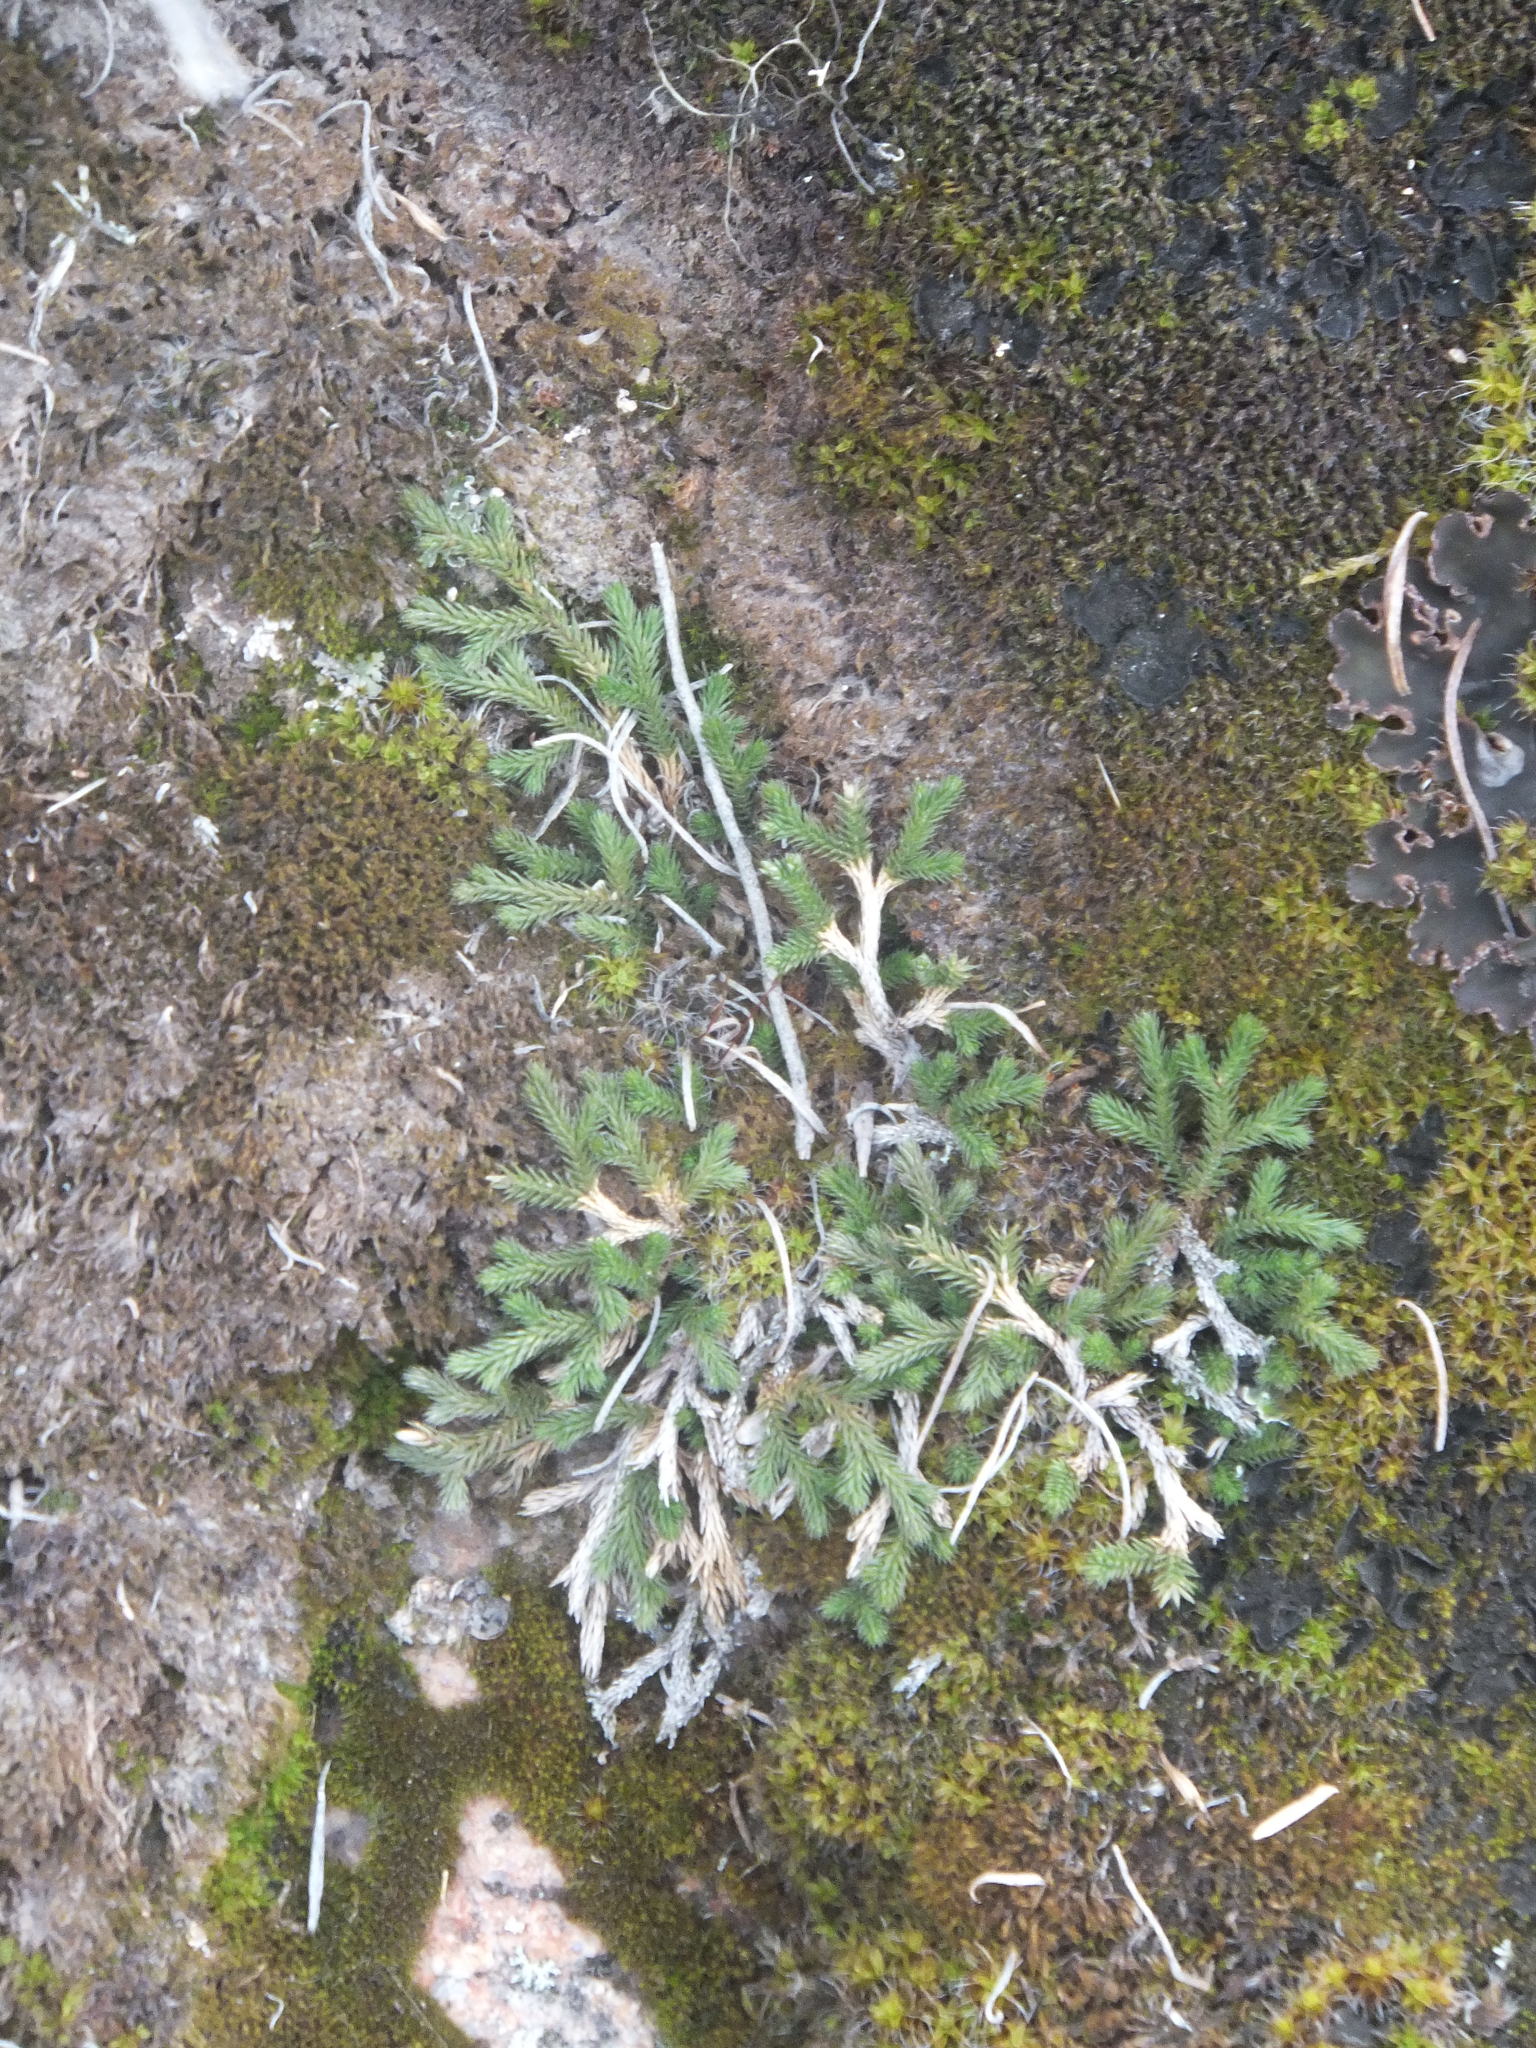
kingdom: Plantae
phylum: Tracheophyta
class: Lycopodiopsida
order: Selaginellales
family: Selaginellaceae
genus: Selaginella
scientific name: Selaginella wallacei
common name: Wallace's selaginella
